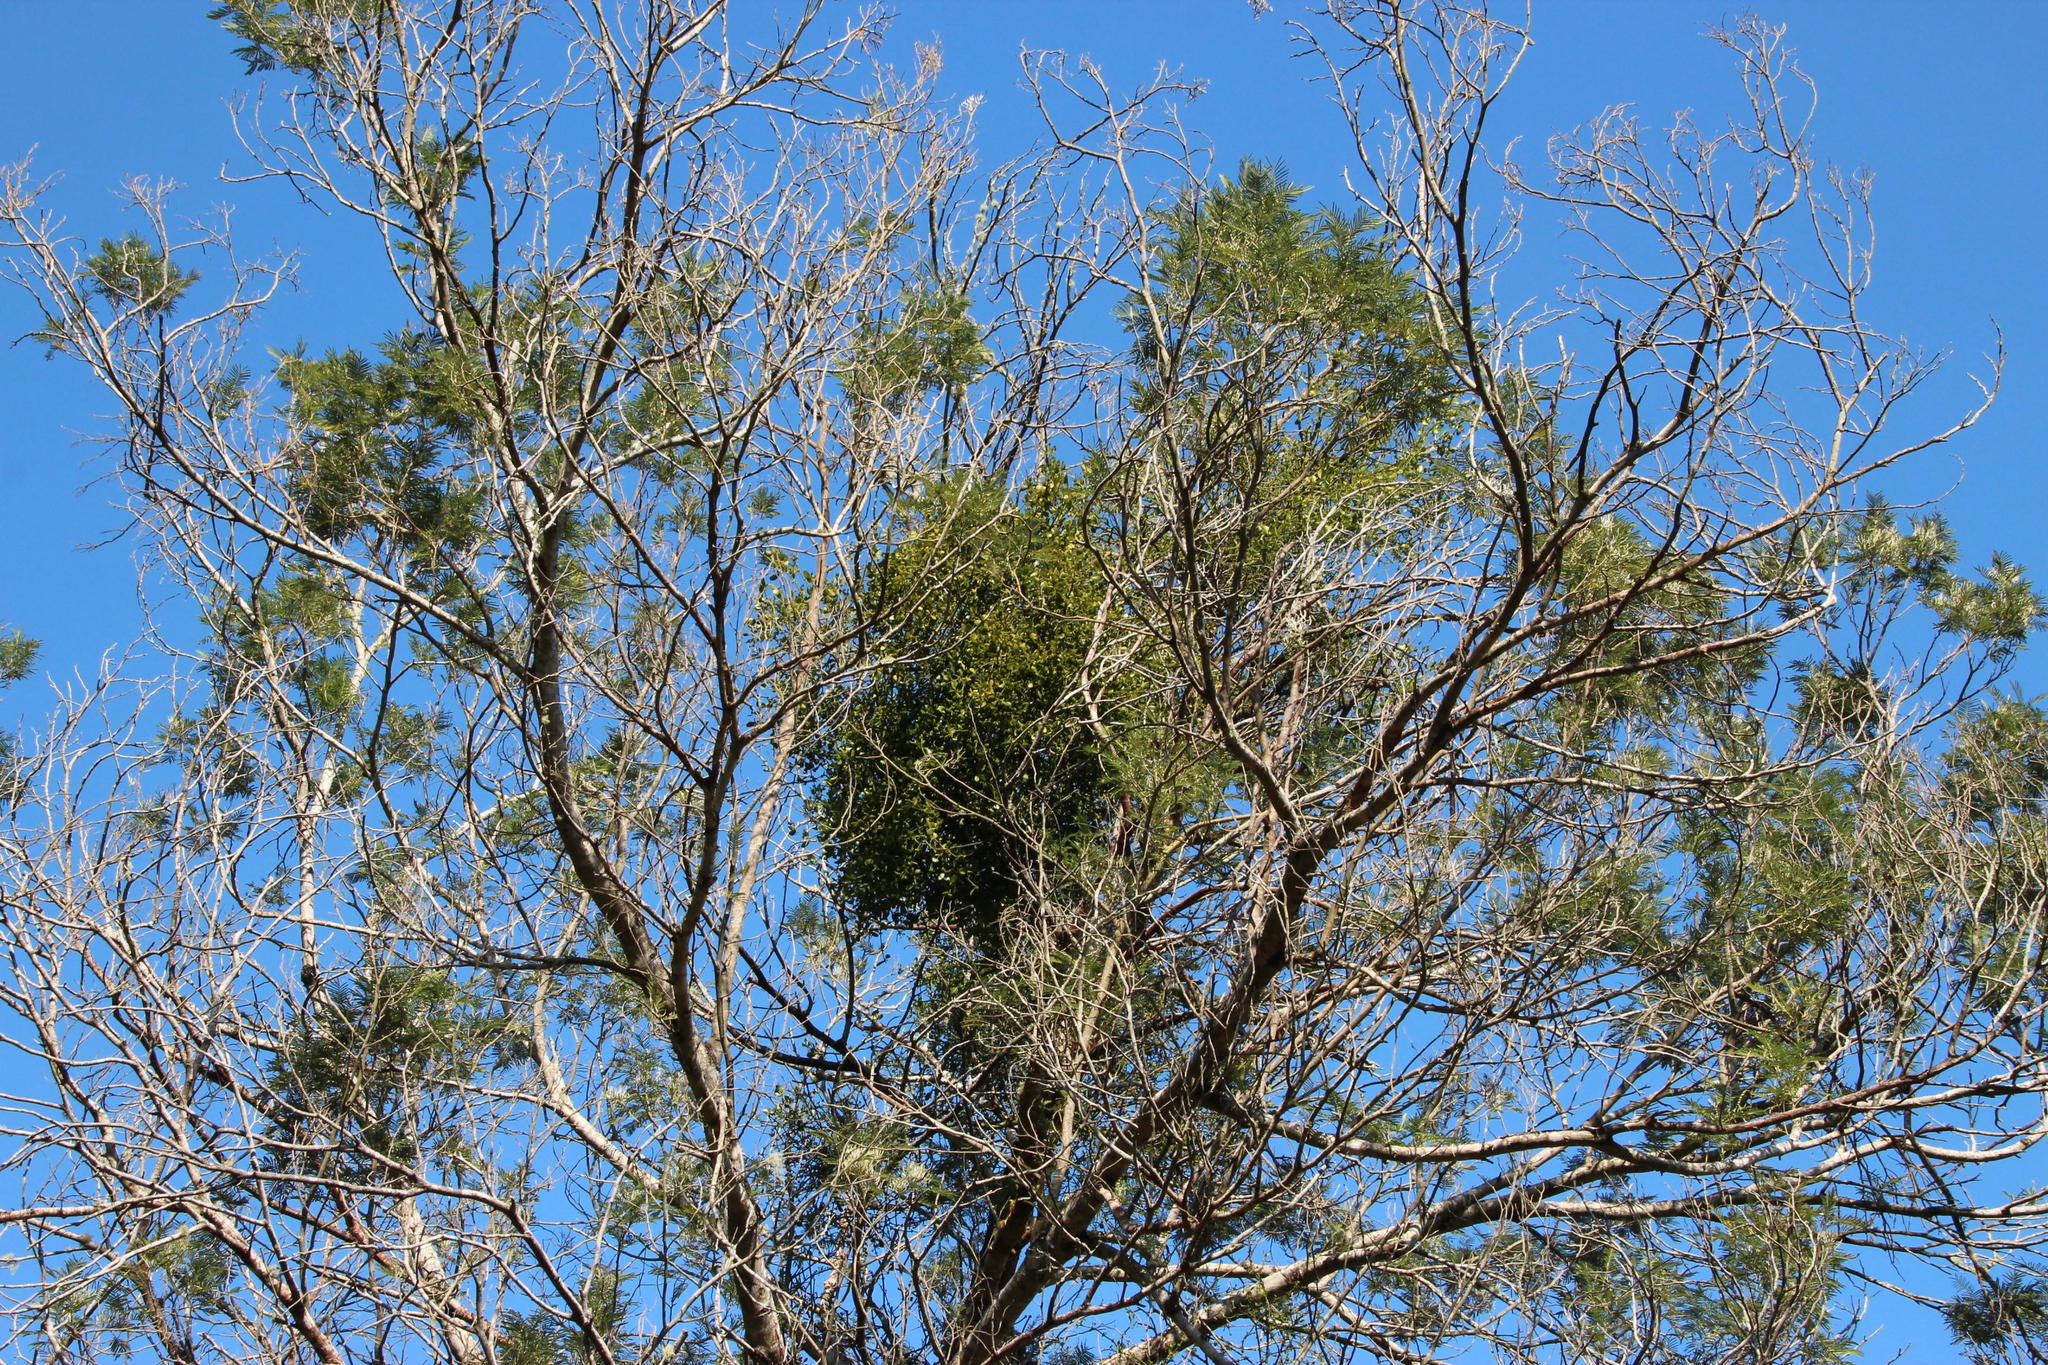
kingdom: Plantae
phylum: Tracheophyta
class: Magnoliopsida
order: Fabales
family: Fabaceae
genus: Acacia
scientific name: Acacia mearnsii
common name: Black wattle
